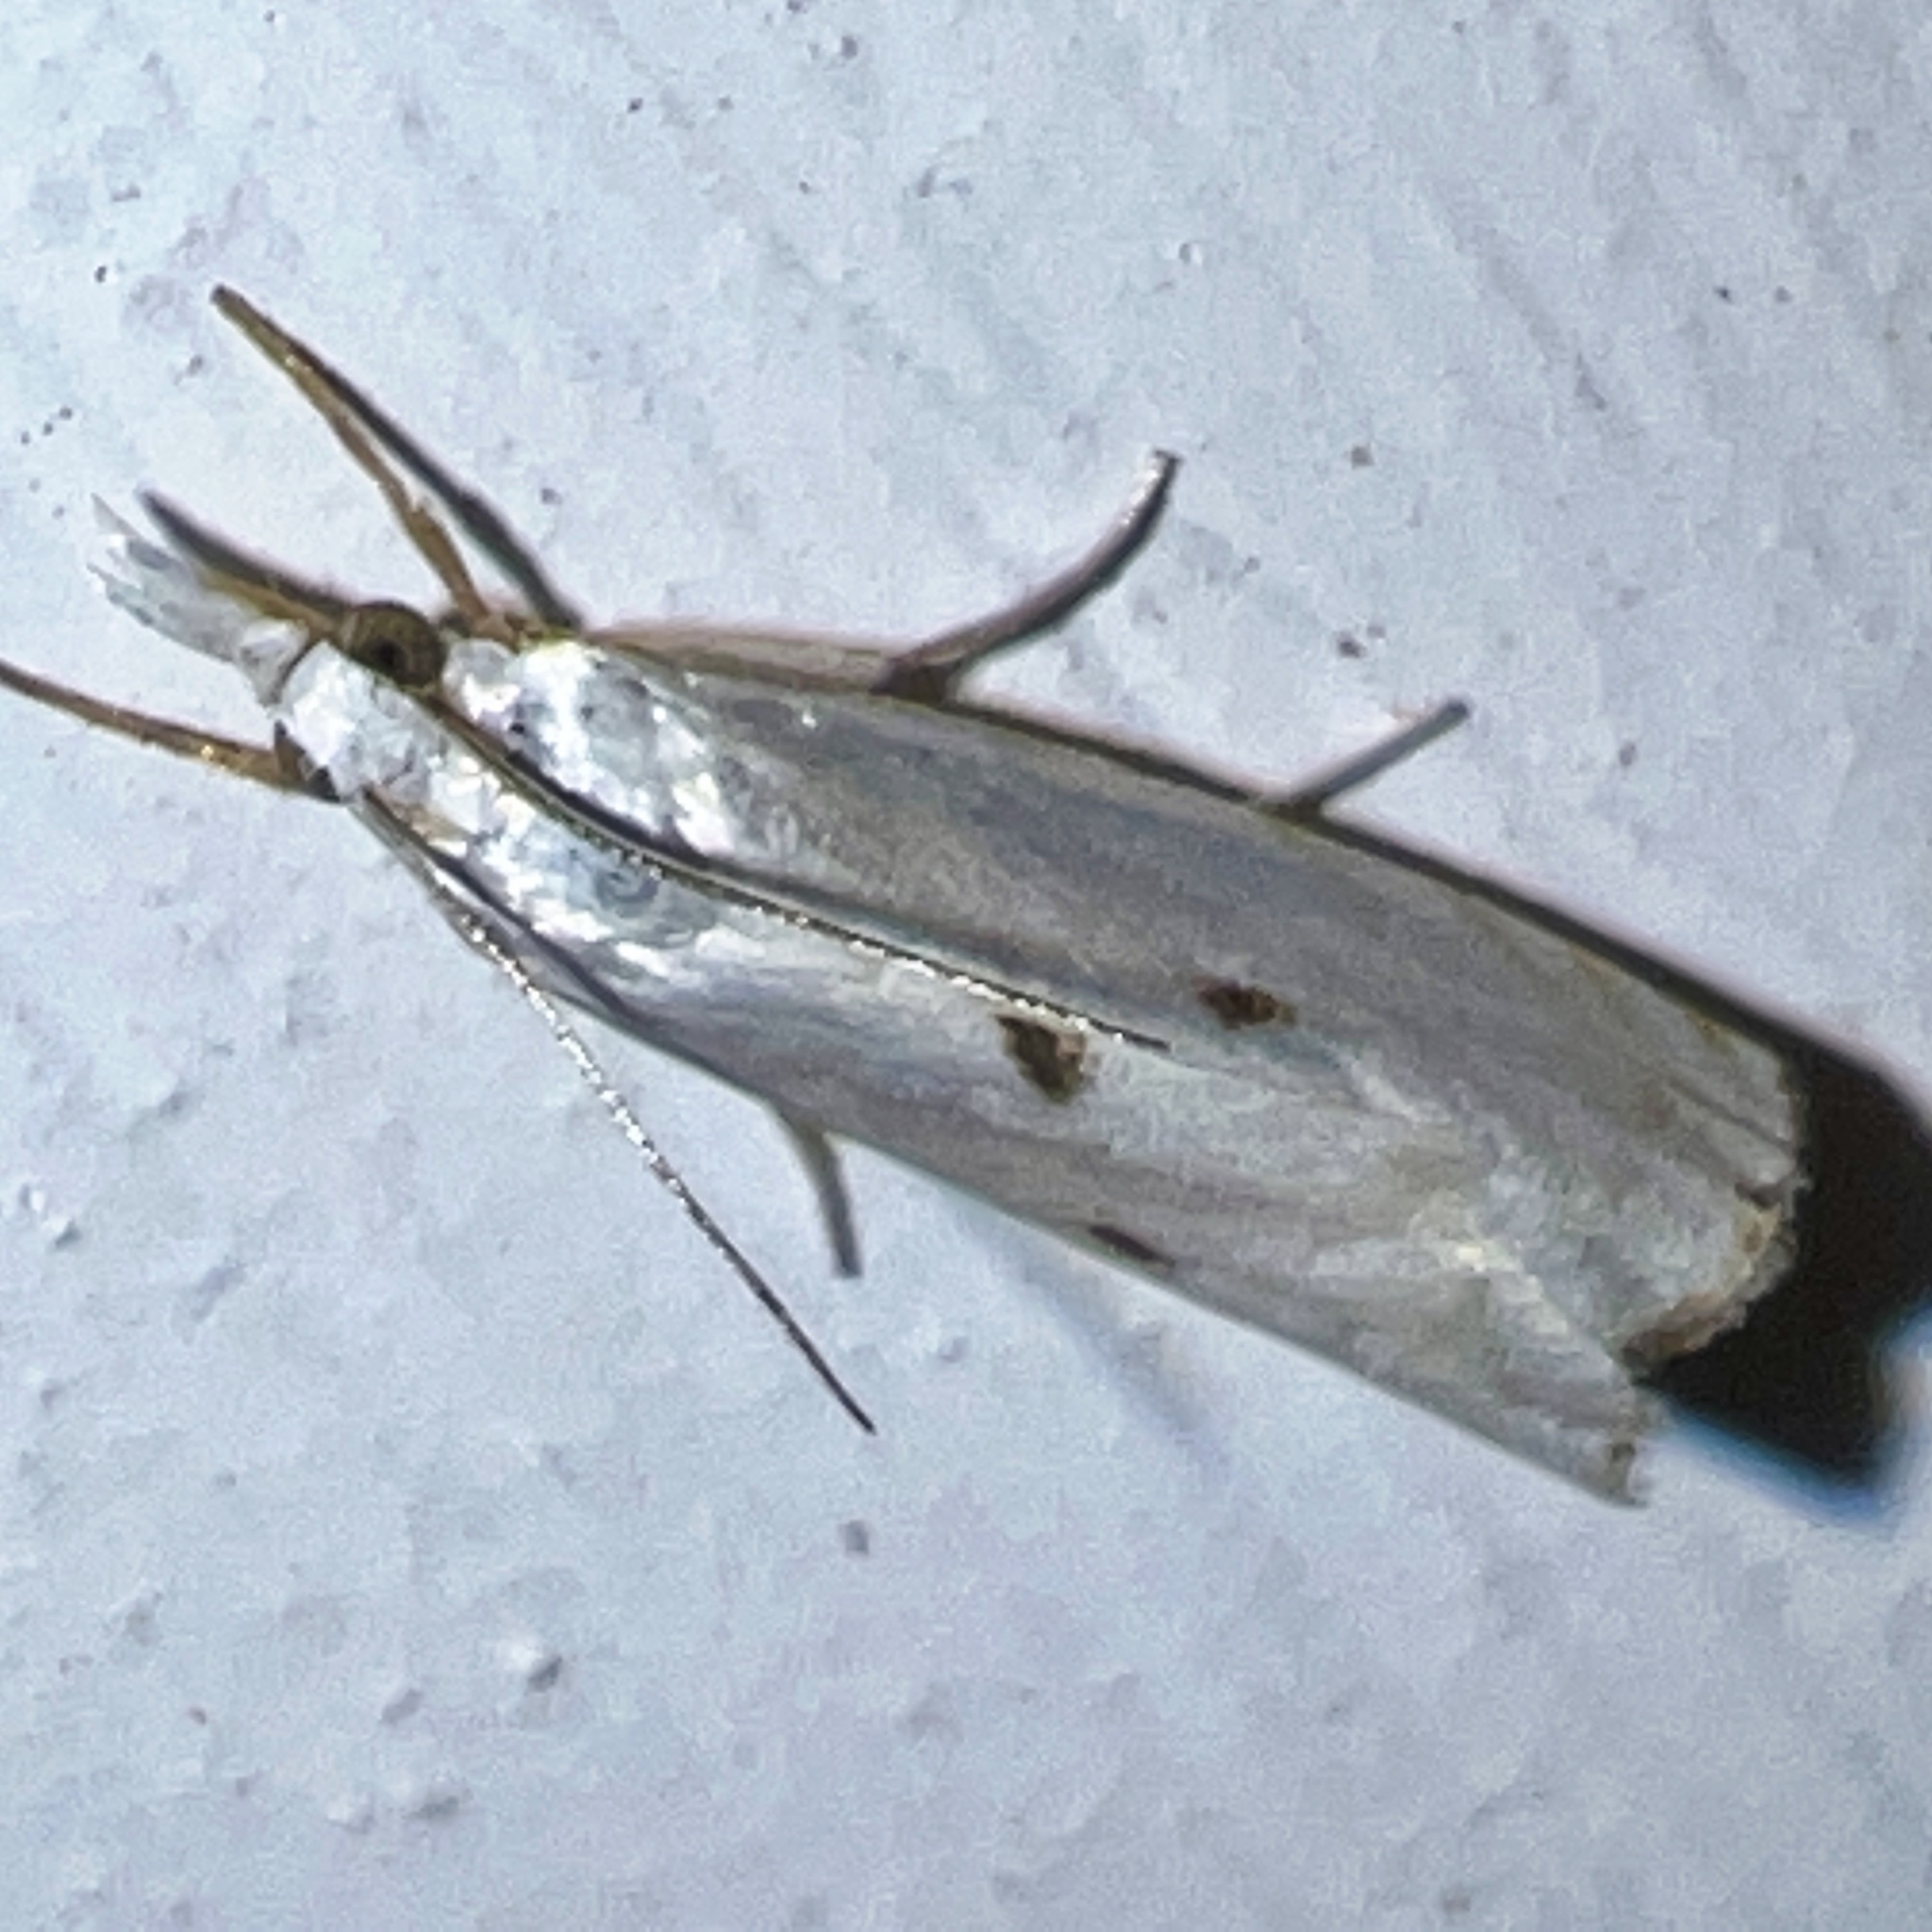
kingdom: Animalia
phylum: Arthropoda
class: Insecta
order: Lepidoptera
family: Crambidae
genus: Microcrambus
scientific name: Microcrambus biguttellus
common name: Gold-stripe grass-veneer moth
